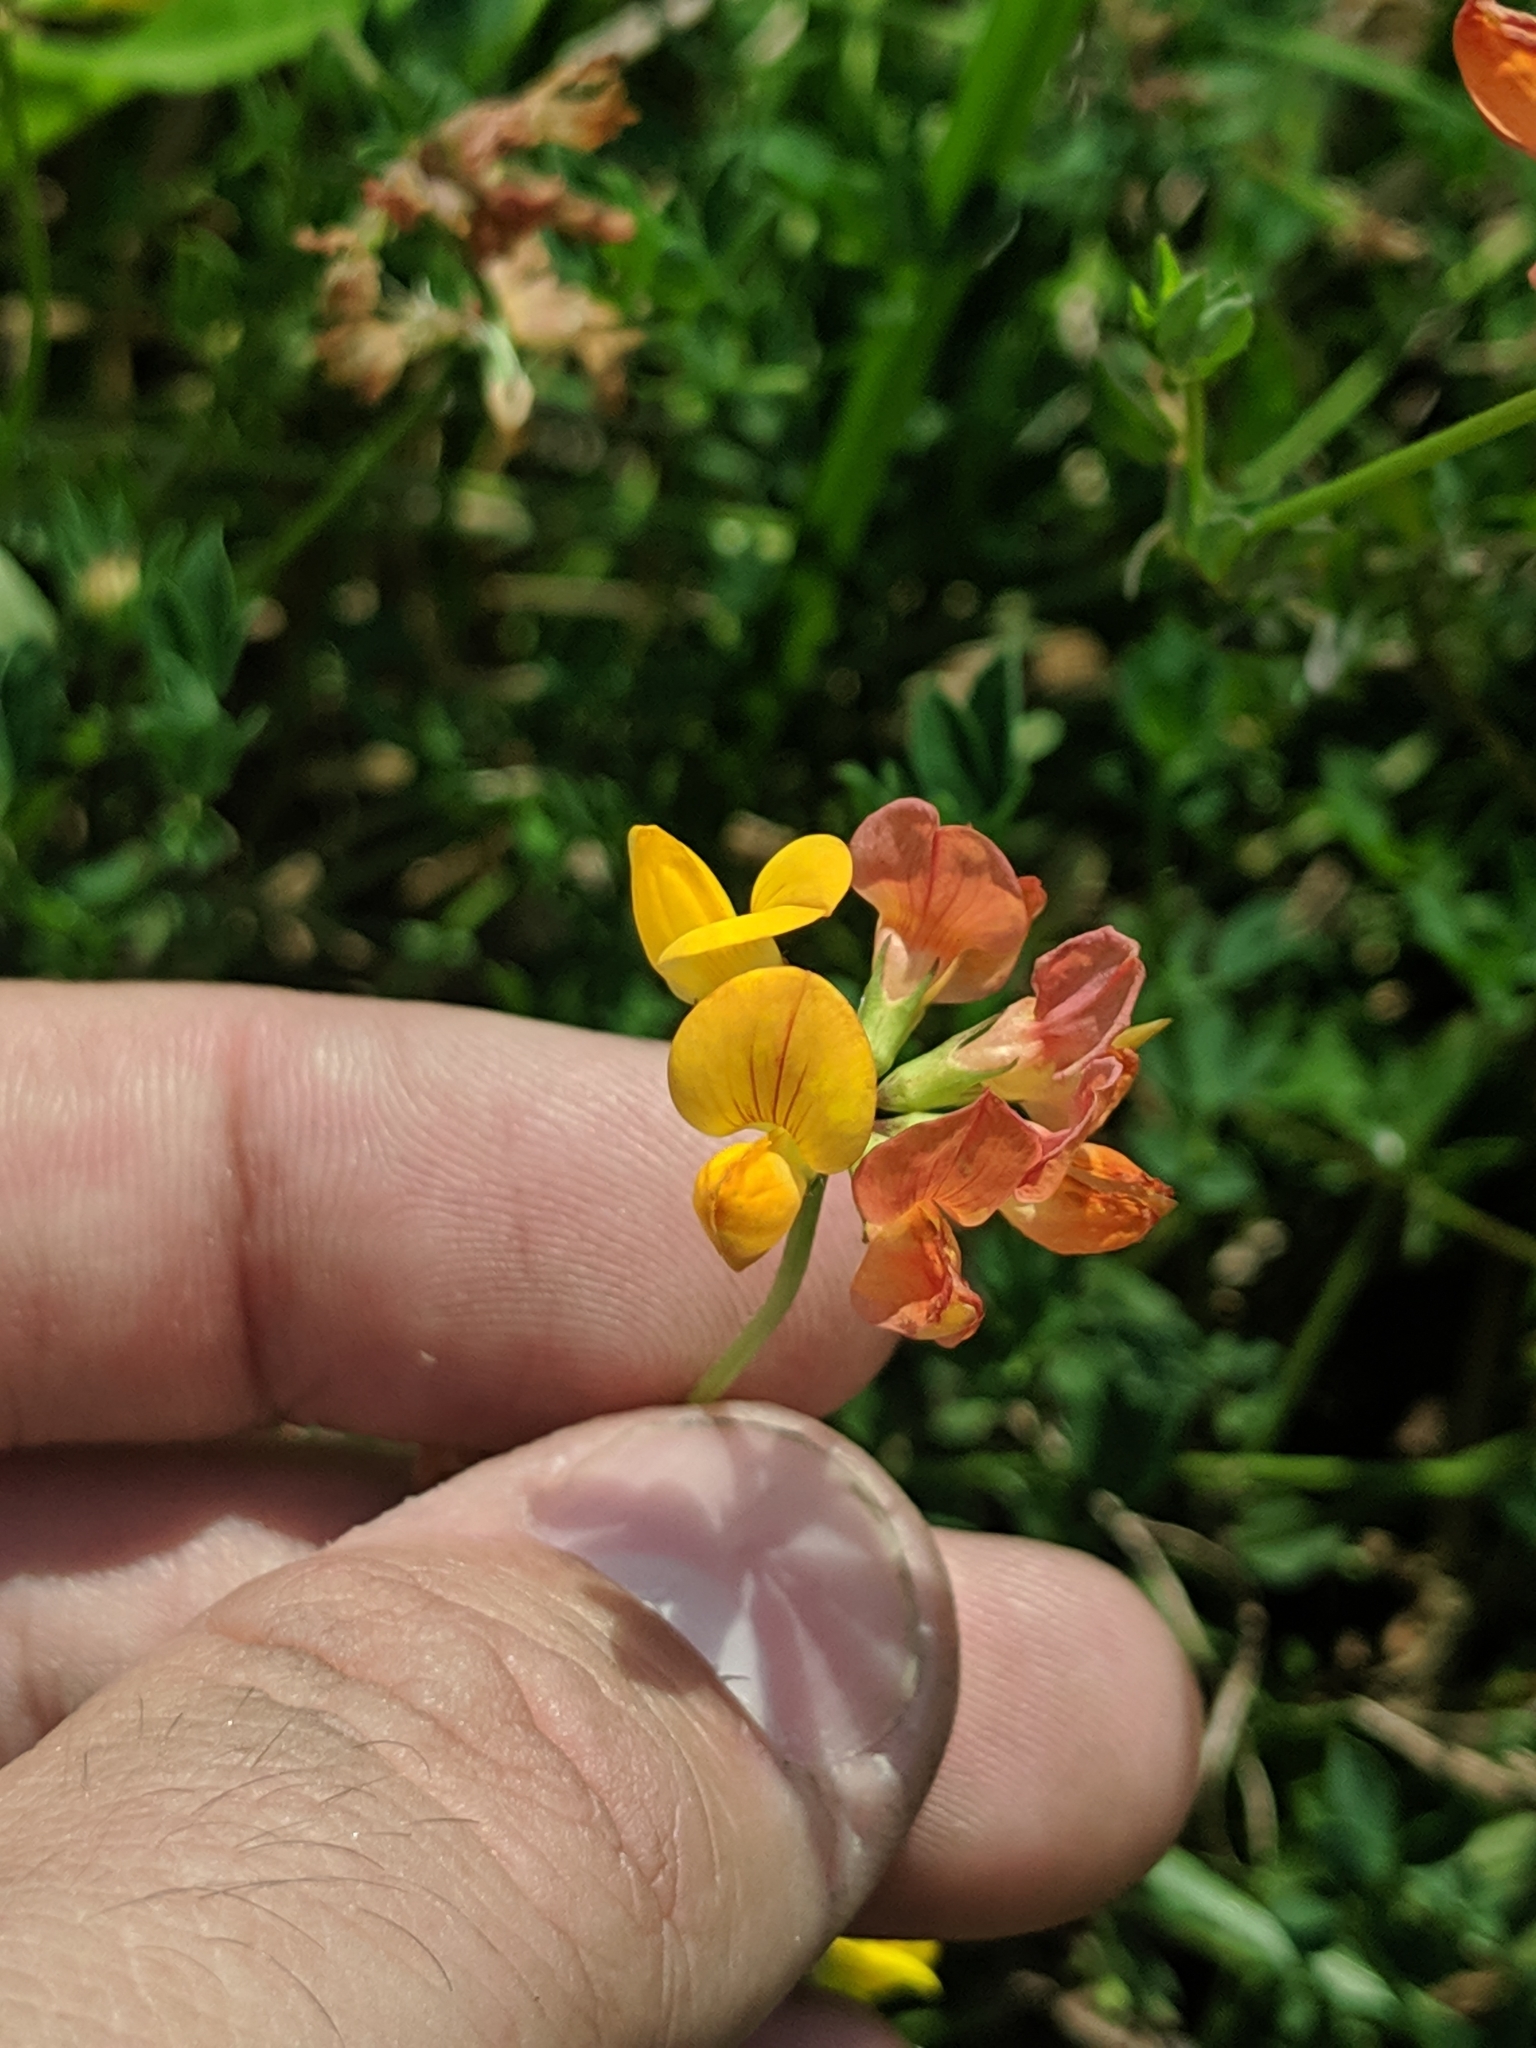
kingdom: Plantae
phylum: Tracheophyta
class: Magnoliopsida
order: Fabales
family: Fabaceae
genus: Lotus
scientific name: Lotus corniculatus
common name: Common bird's-foot-trefoil
